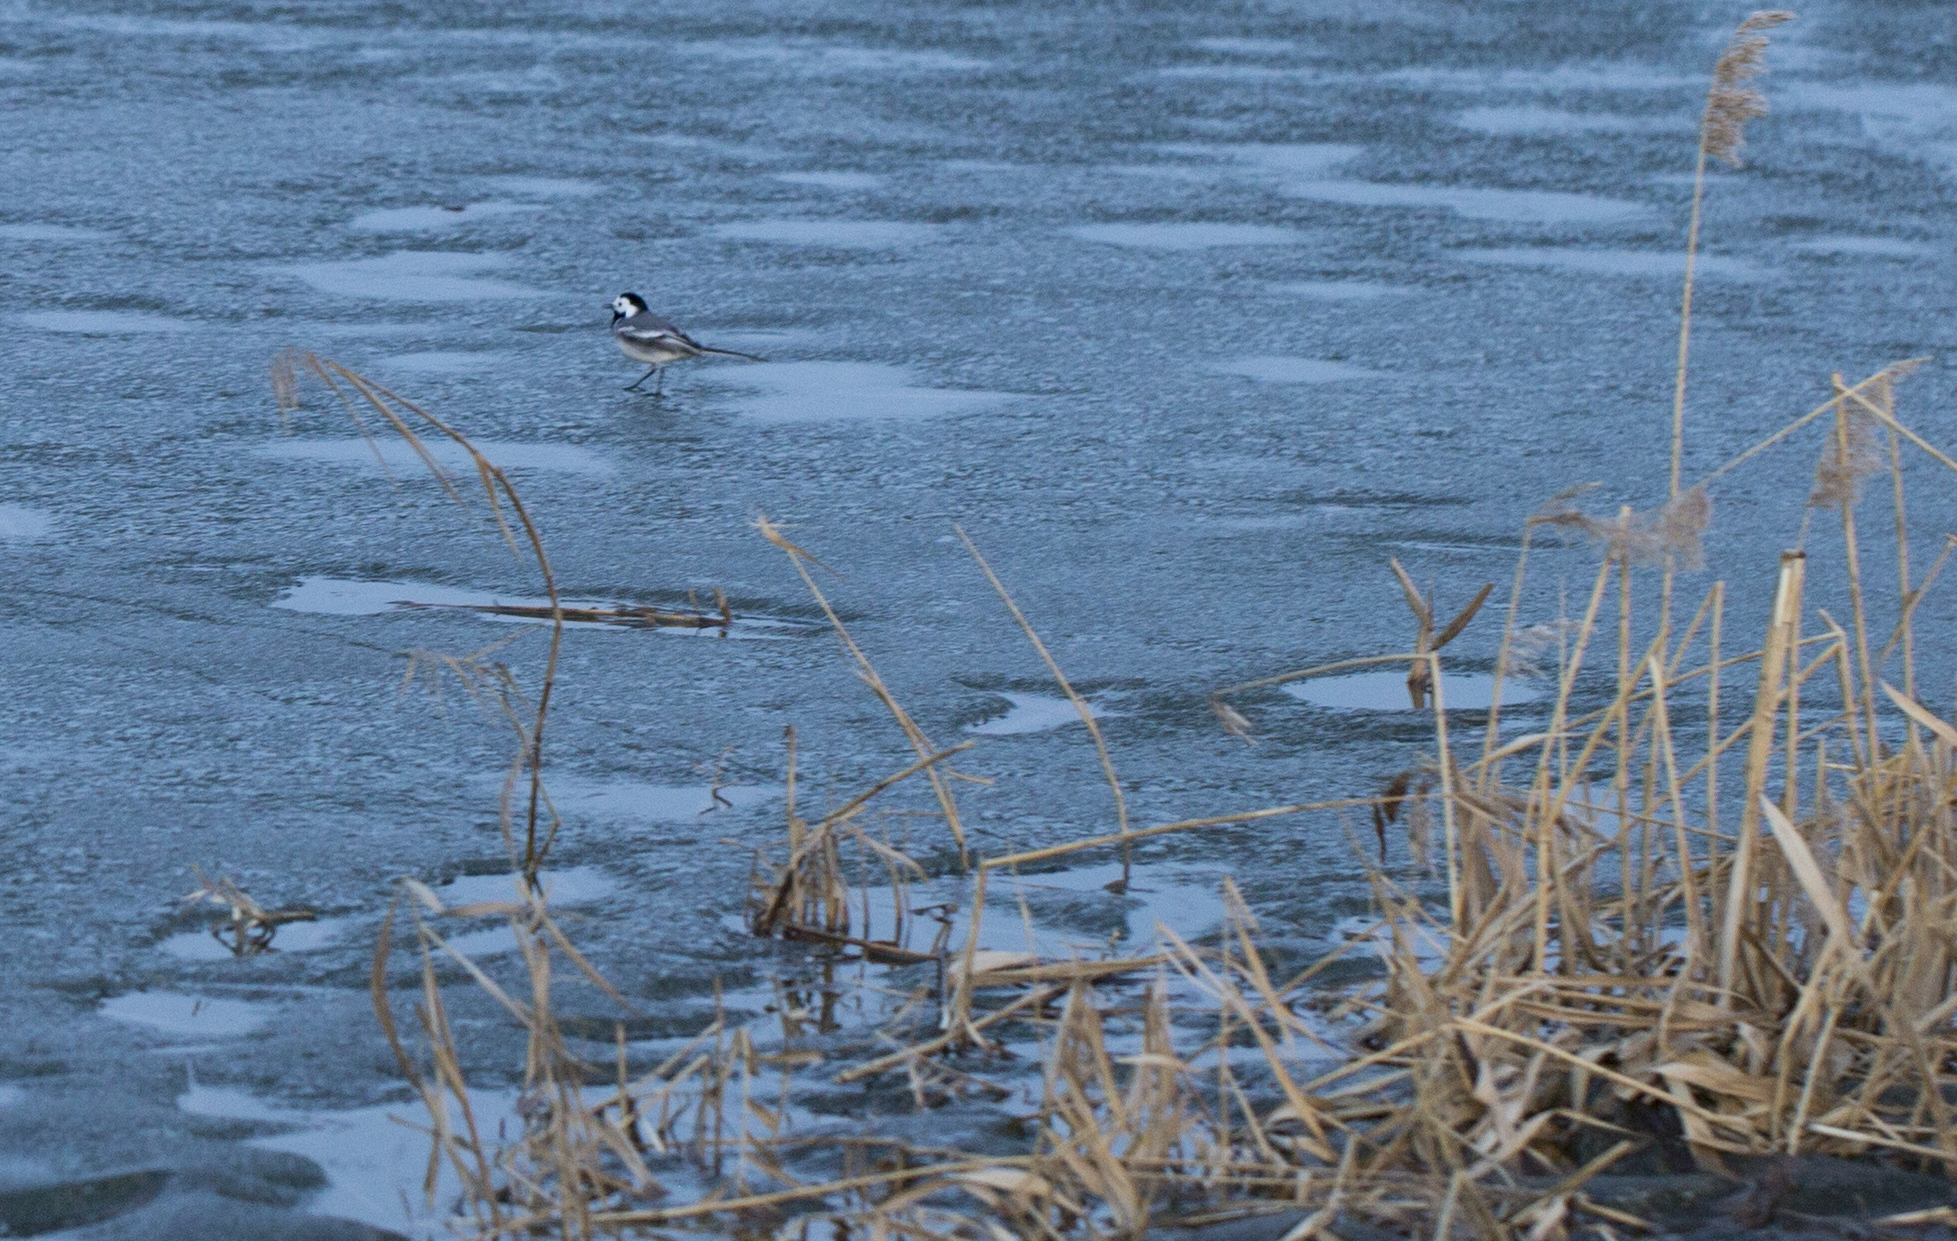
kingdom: Animalia
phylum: Chordata
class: Aves
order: Passeriformes
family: Motacillidae
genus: Motacilla
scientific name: Motacilla alba
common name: White wagtail
